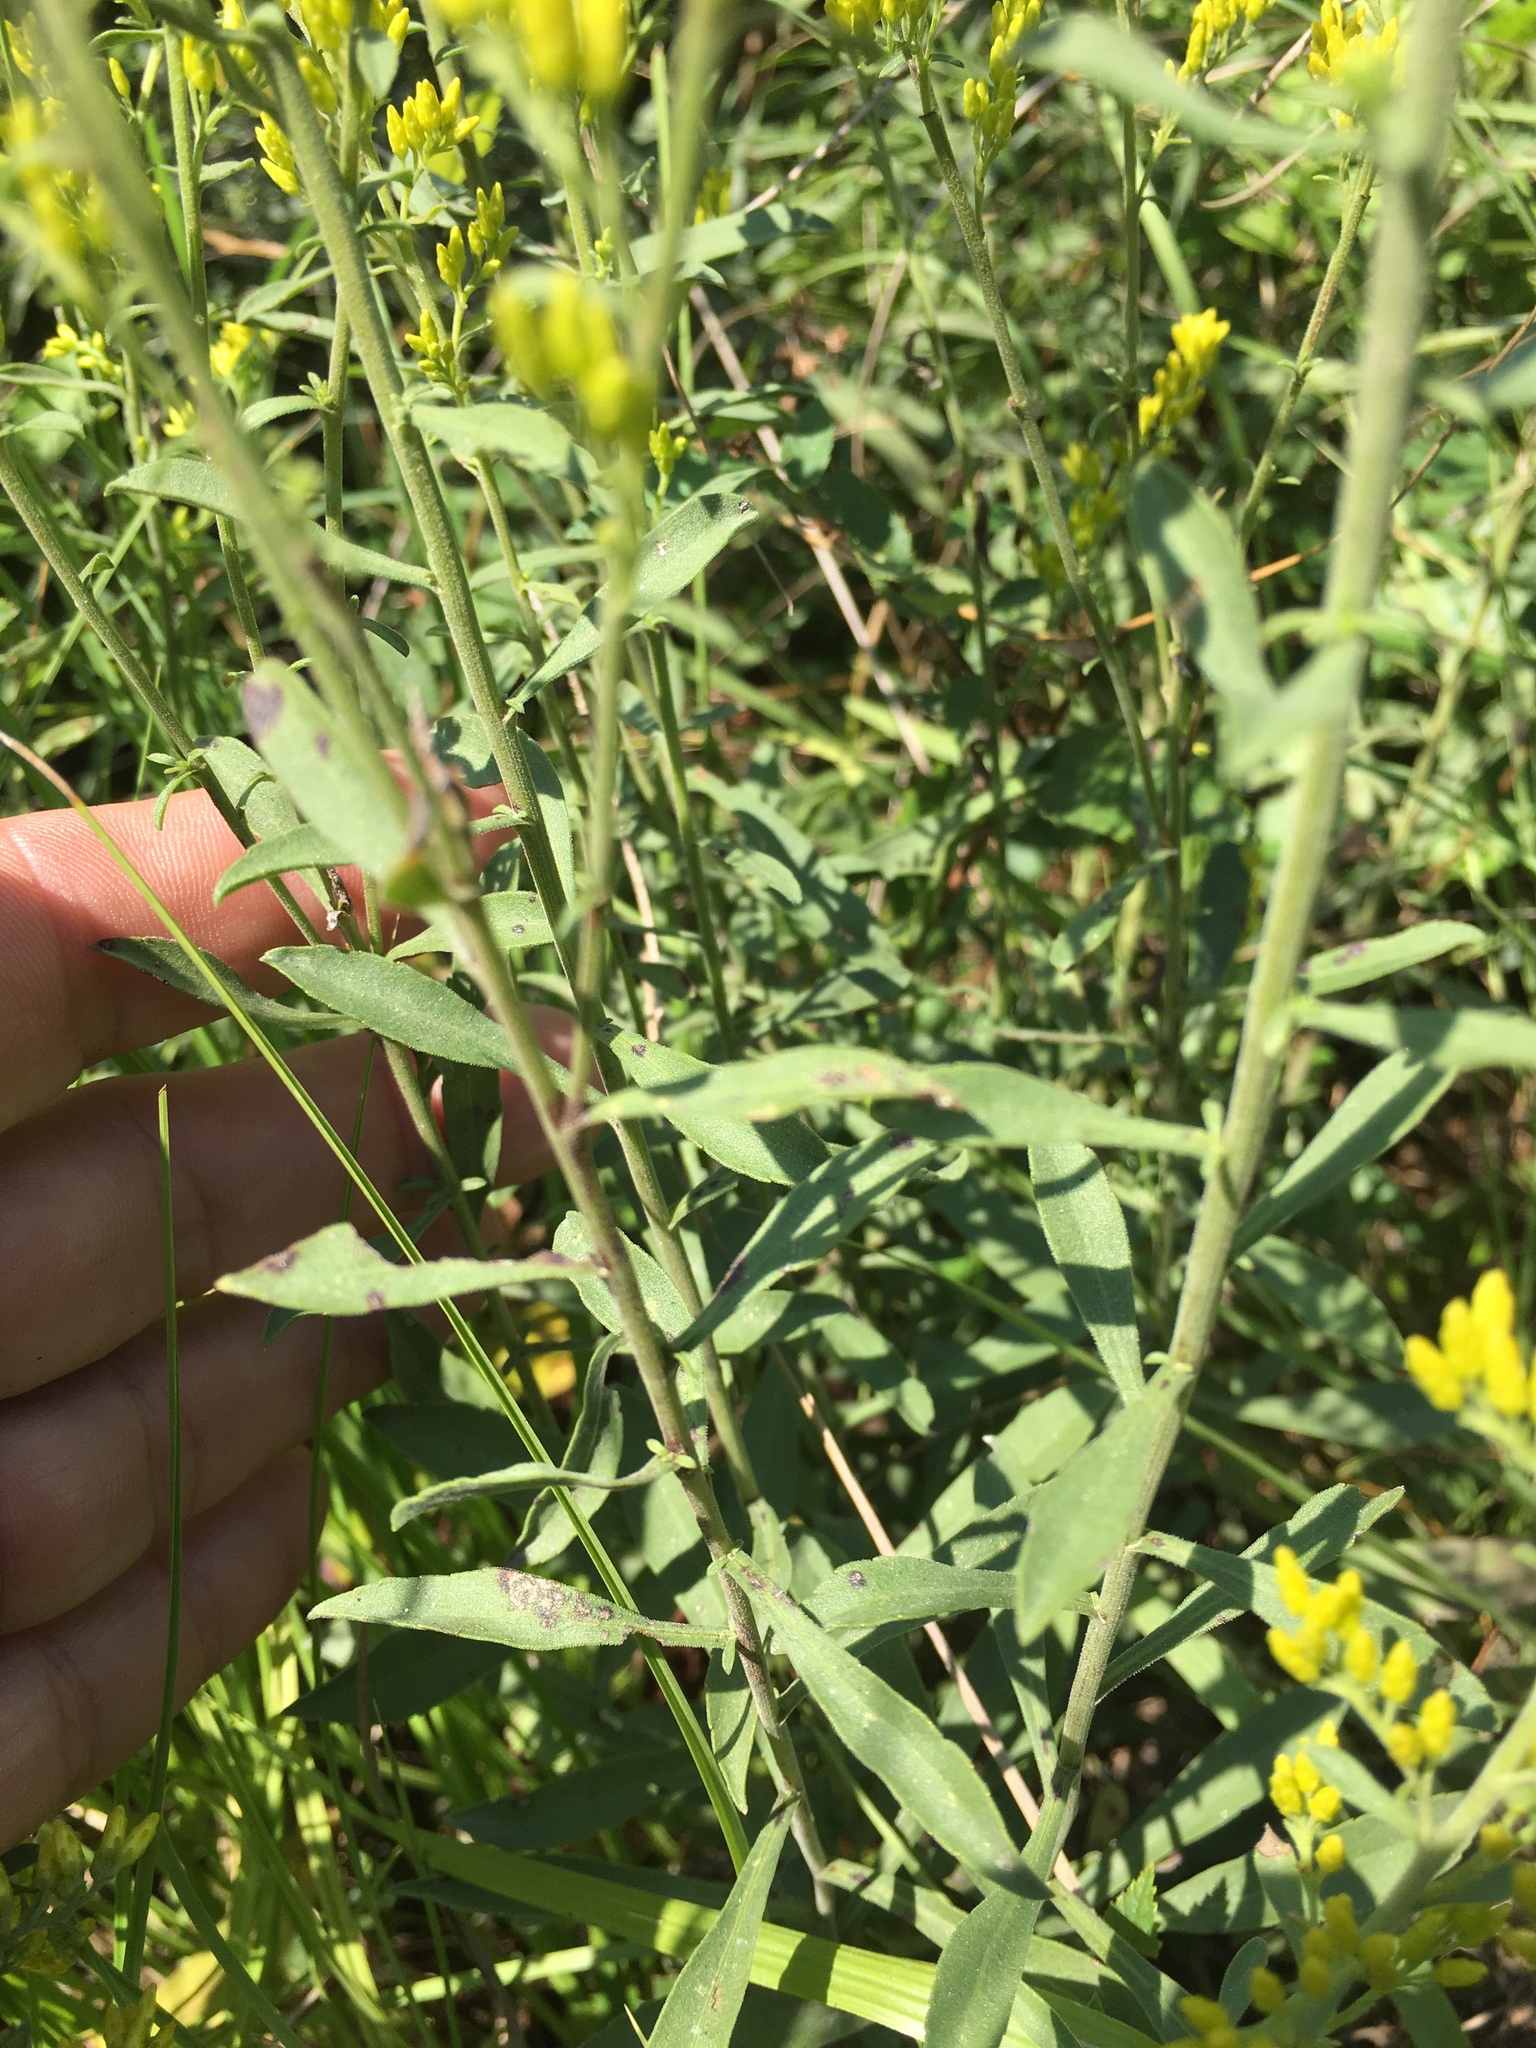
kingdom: Plantae
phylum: Tracheophyta
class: Magnoliopsida
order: Asterales
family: Asteraceae
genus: Solidago
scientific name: Solidago nemoralis
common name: Grey goldenrod
